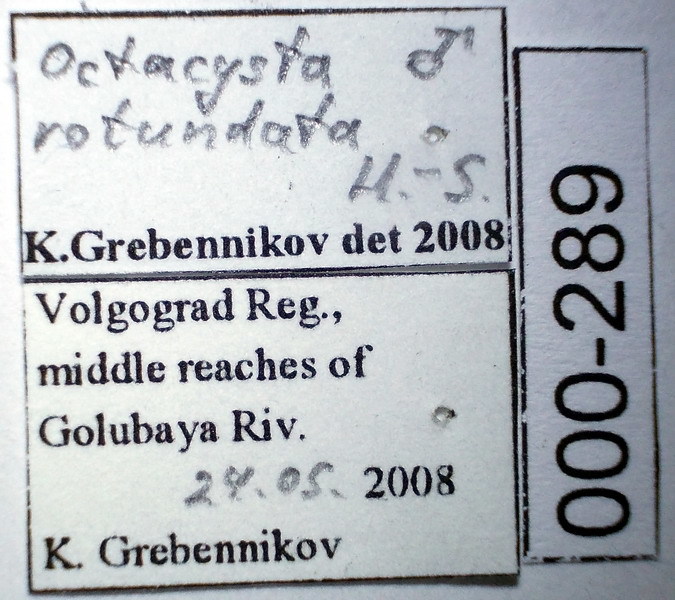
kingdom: Animalia
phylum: Arthropoda
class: Insecta
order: Hemiptera
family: Tingidae
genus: Dictyla
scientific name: Dictyla rotundata
